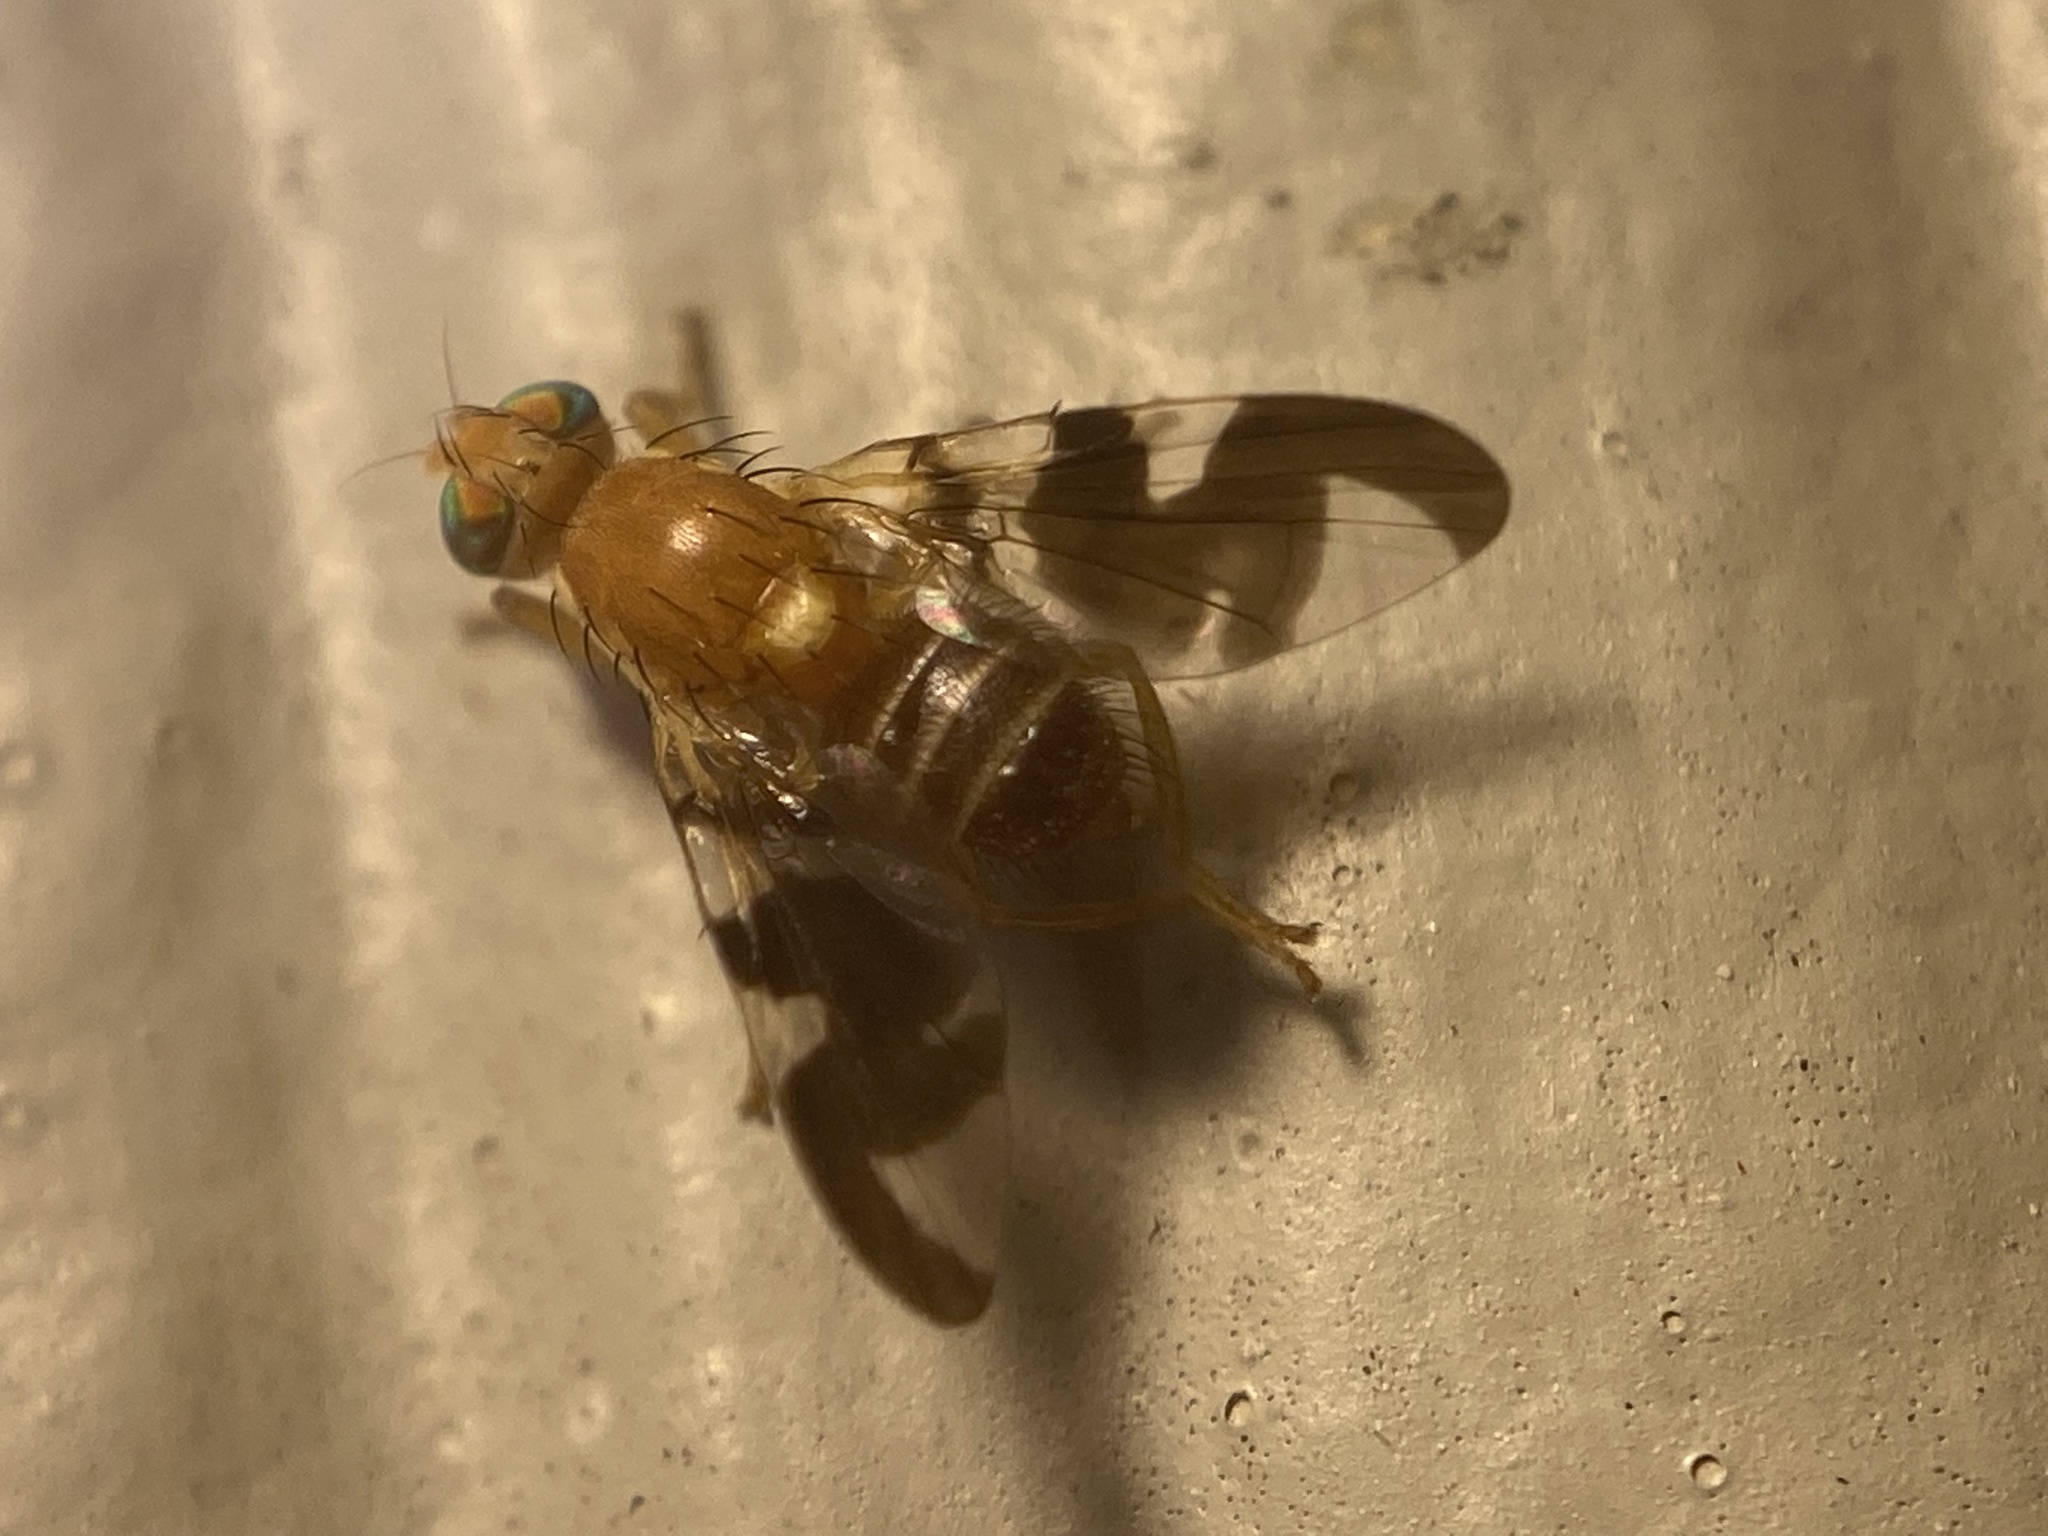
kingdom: Animalia
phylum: Arthropoda
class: Insecta
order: Diptera
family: Tephritidae
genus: Rhagoletis
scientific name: Rhagoletis suavis
